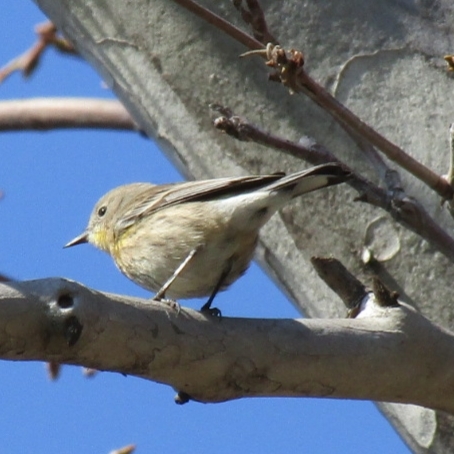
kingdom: Animalia
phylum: Chordata
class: Aves
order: Passeriformes
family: Parulidae
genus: Setophaga
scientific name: Setophaga coronata
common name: Myrtle warbler
